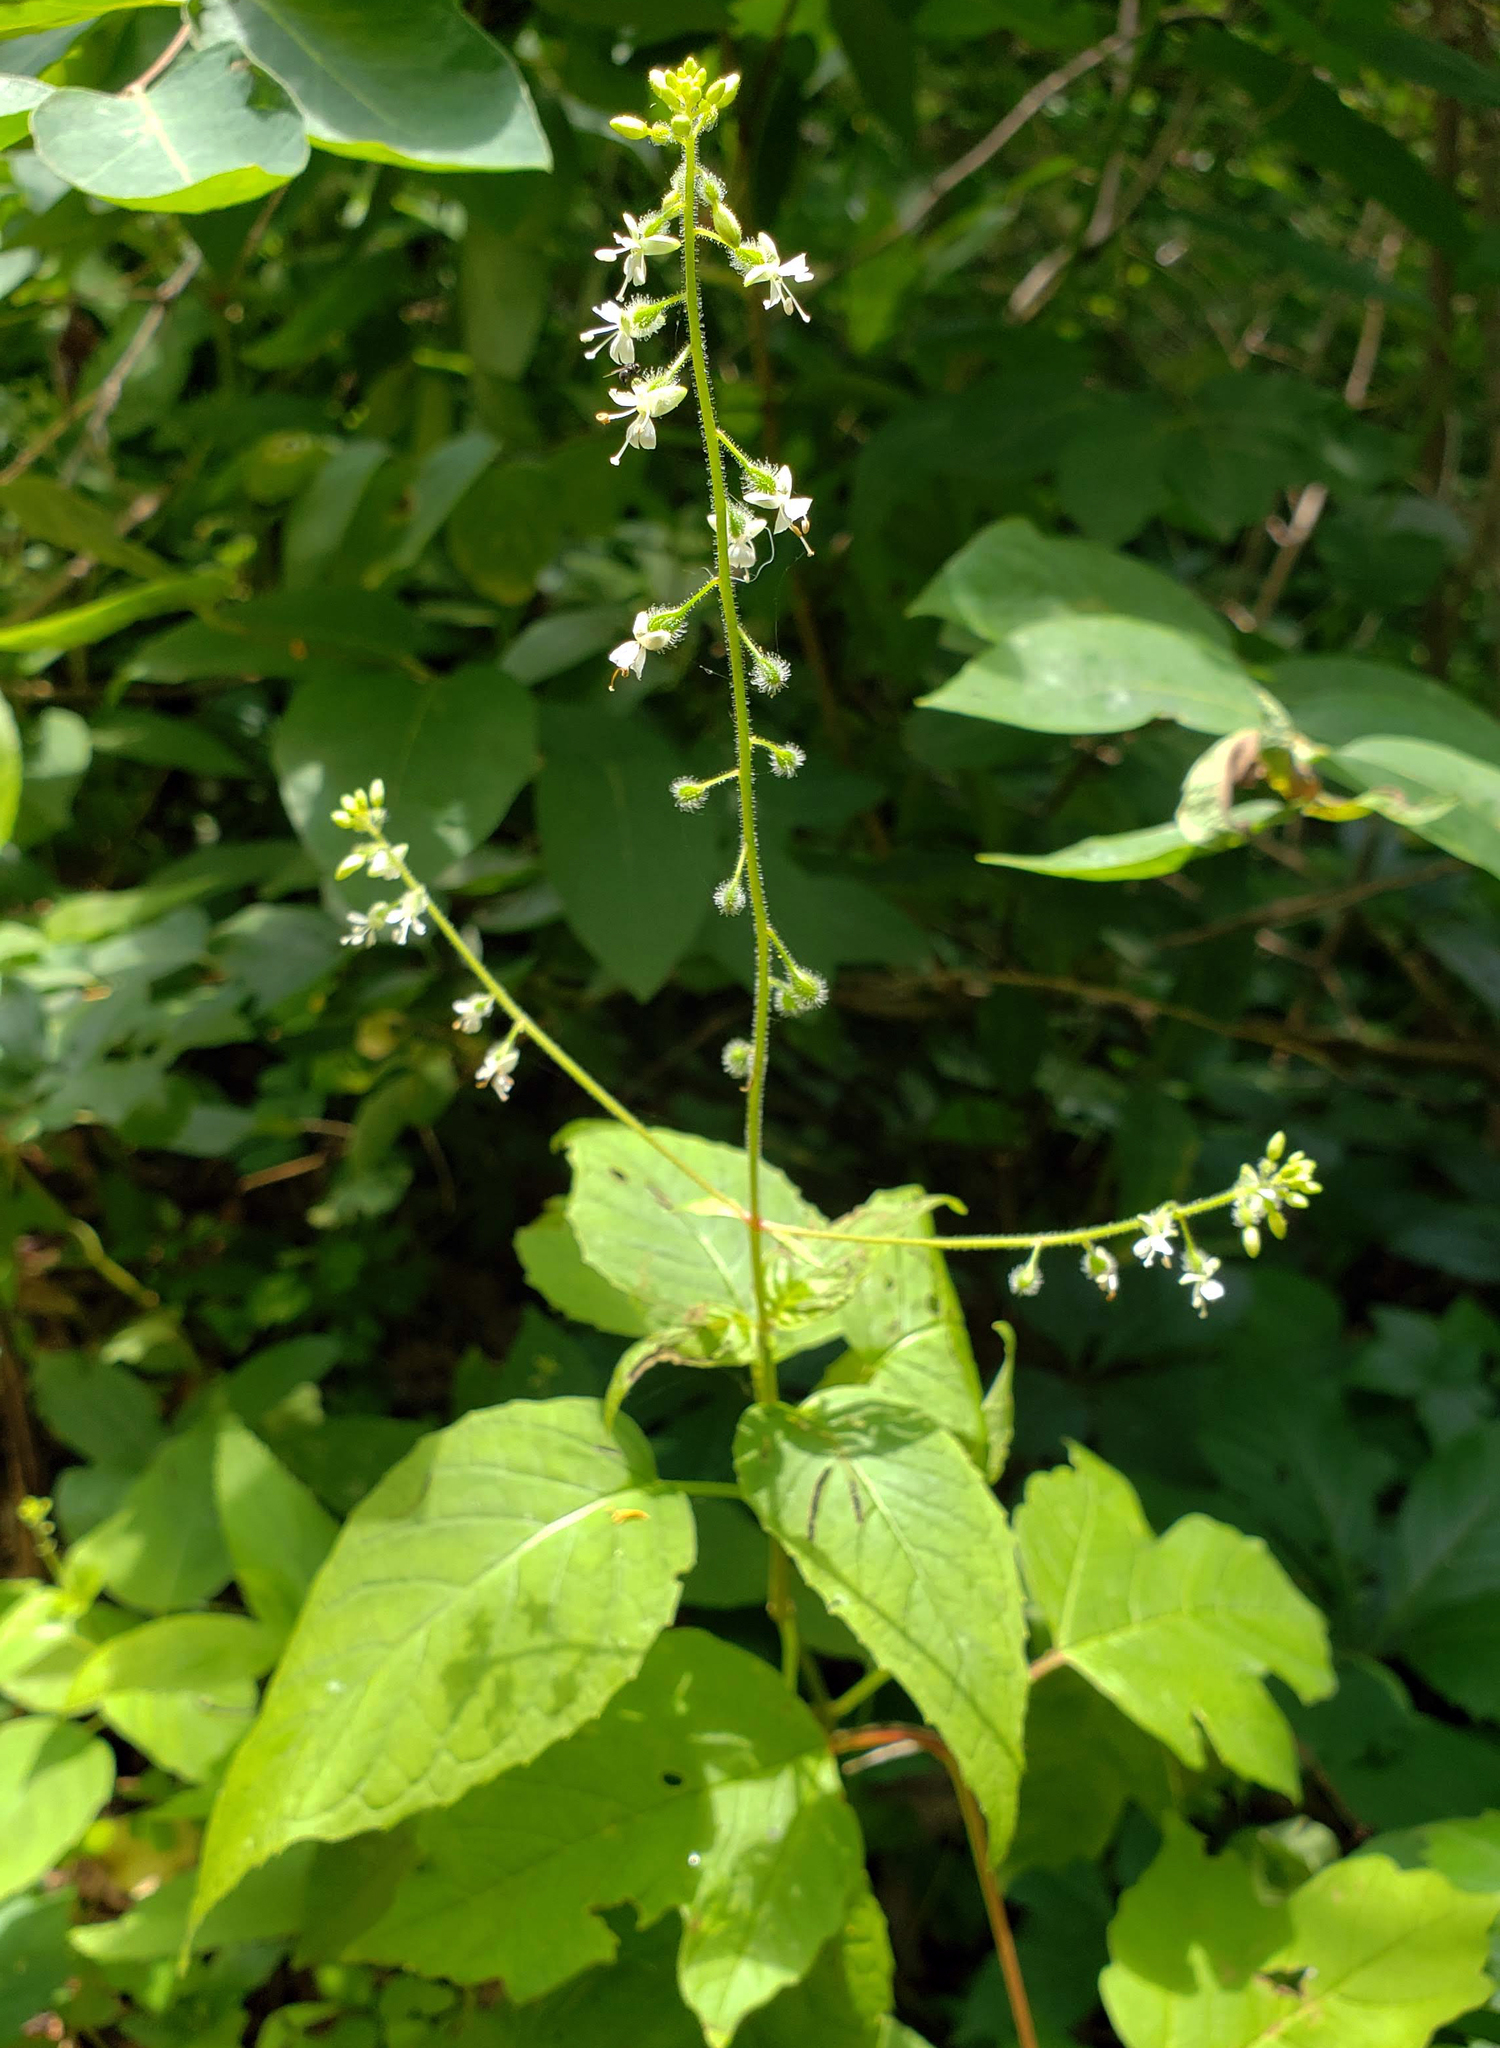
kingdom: Plantae
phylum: Tracheophyta
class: Magnoliopsida
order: Myrtales
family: Onagraceae
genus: Circaea
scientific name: Circaea canadensis
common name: Broad-leaved enchanter's nightshade
